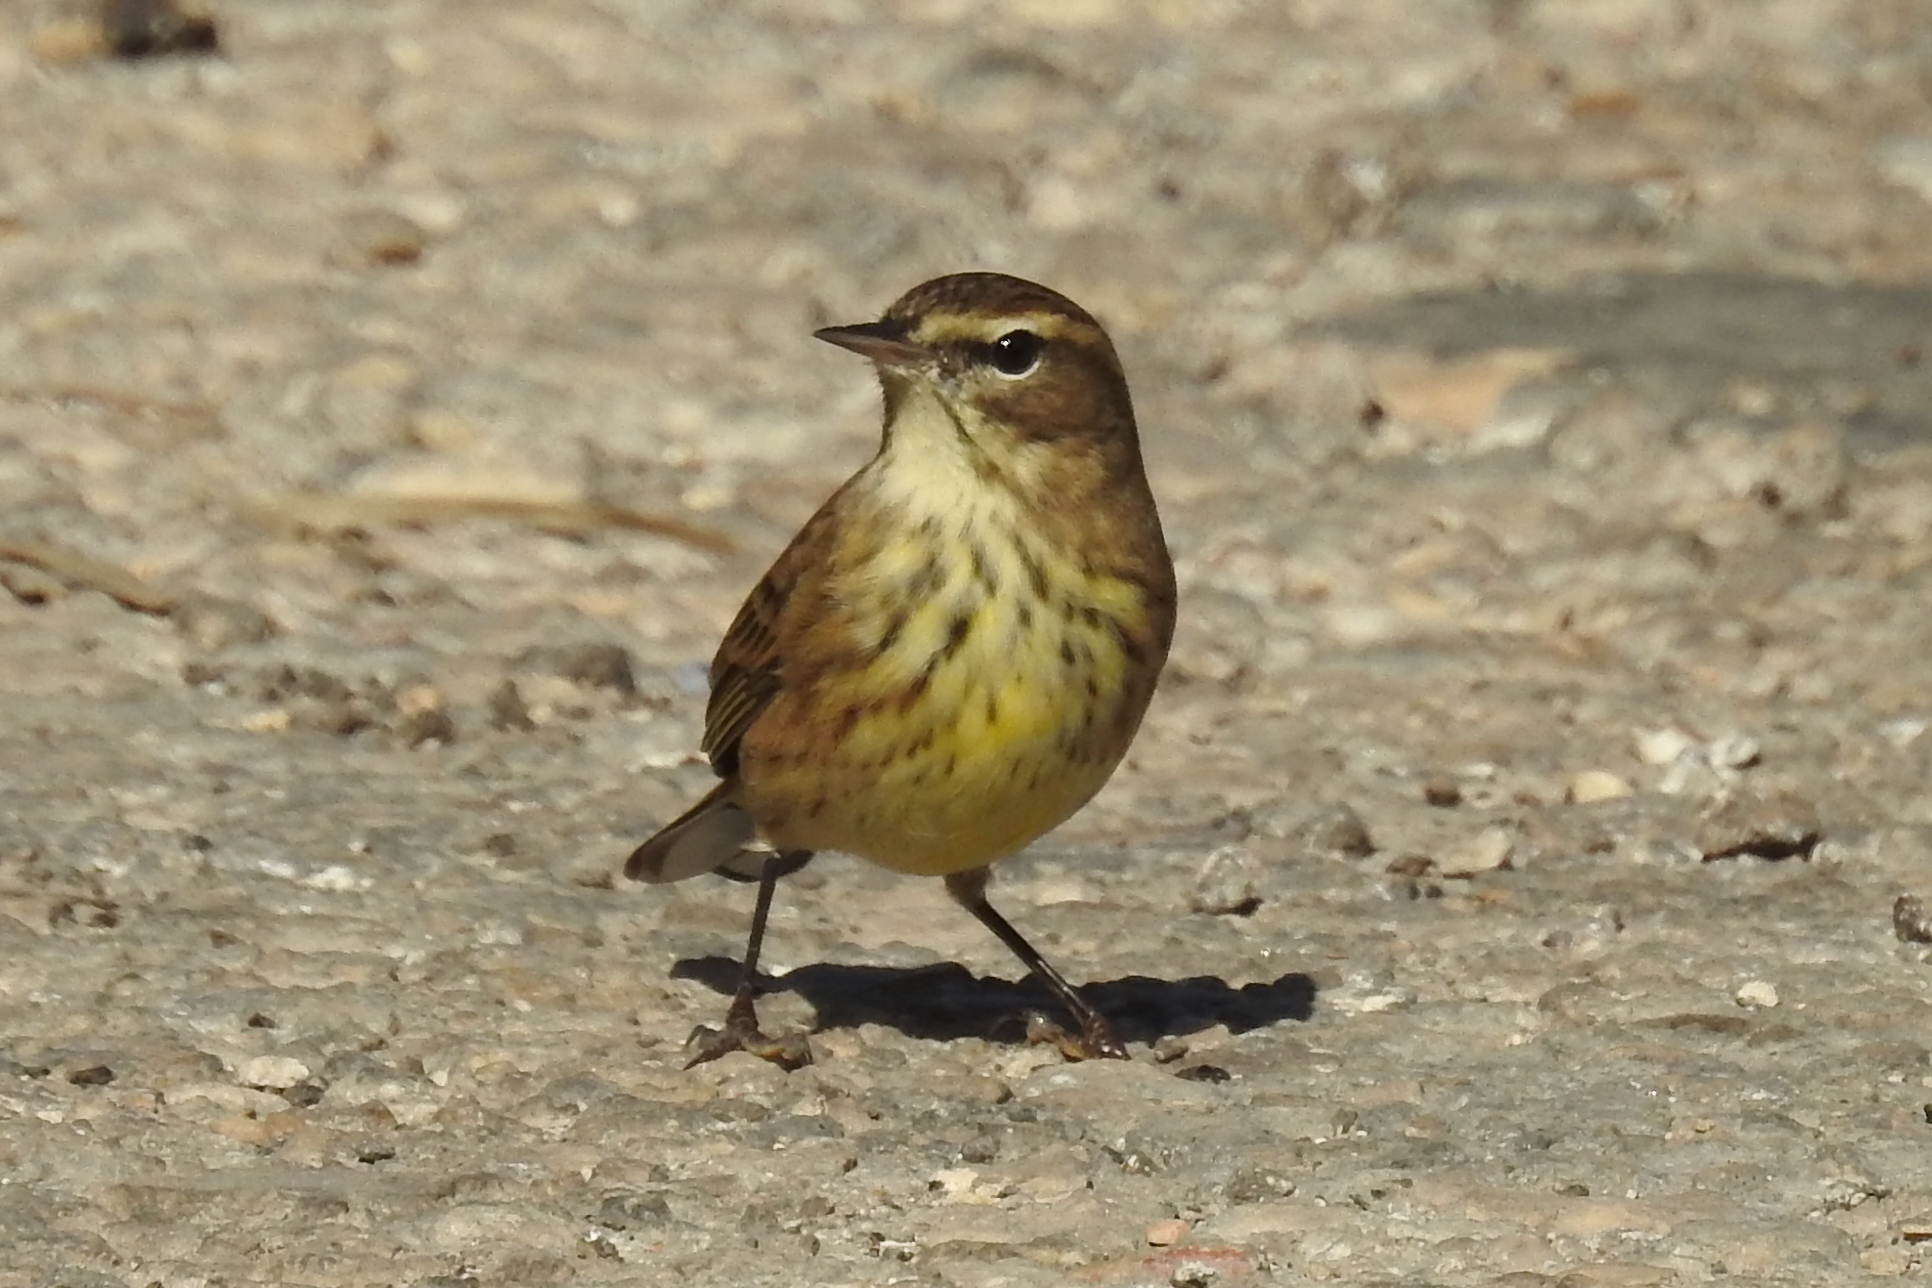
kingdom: Animalia
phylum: Chordata
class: Aves
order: Passeriformes
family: Parulidae
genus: Setophaga
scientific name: Setophaga palmarum
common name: Palm warbler
